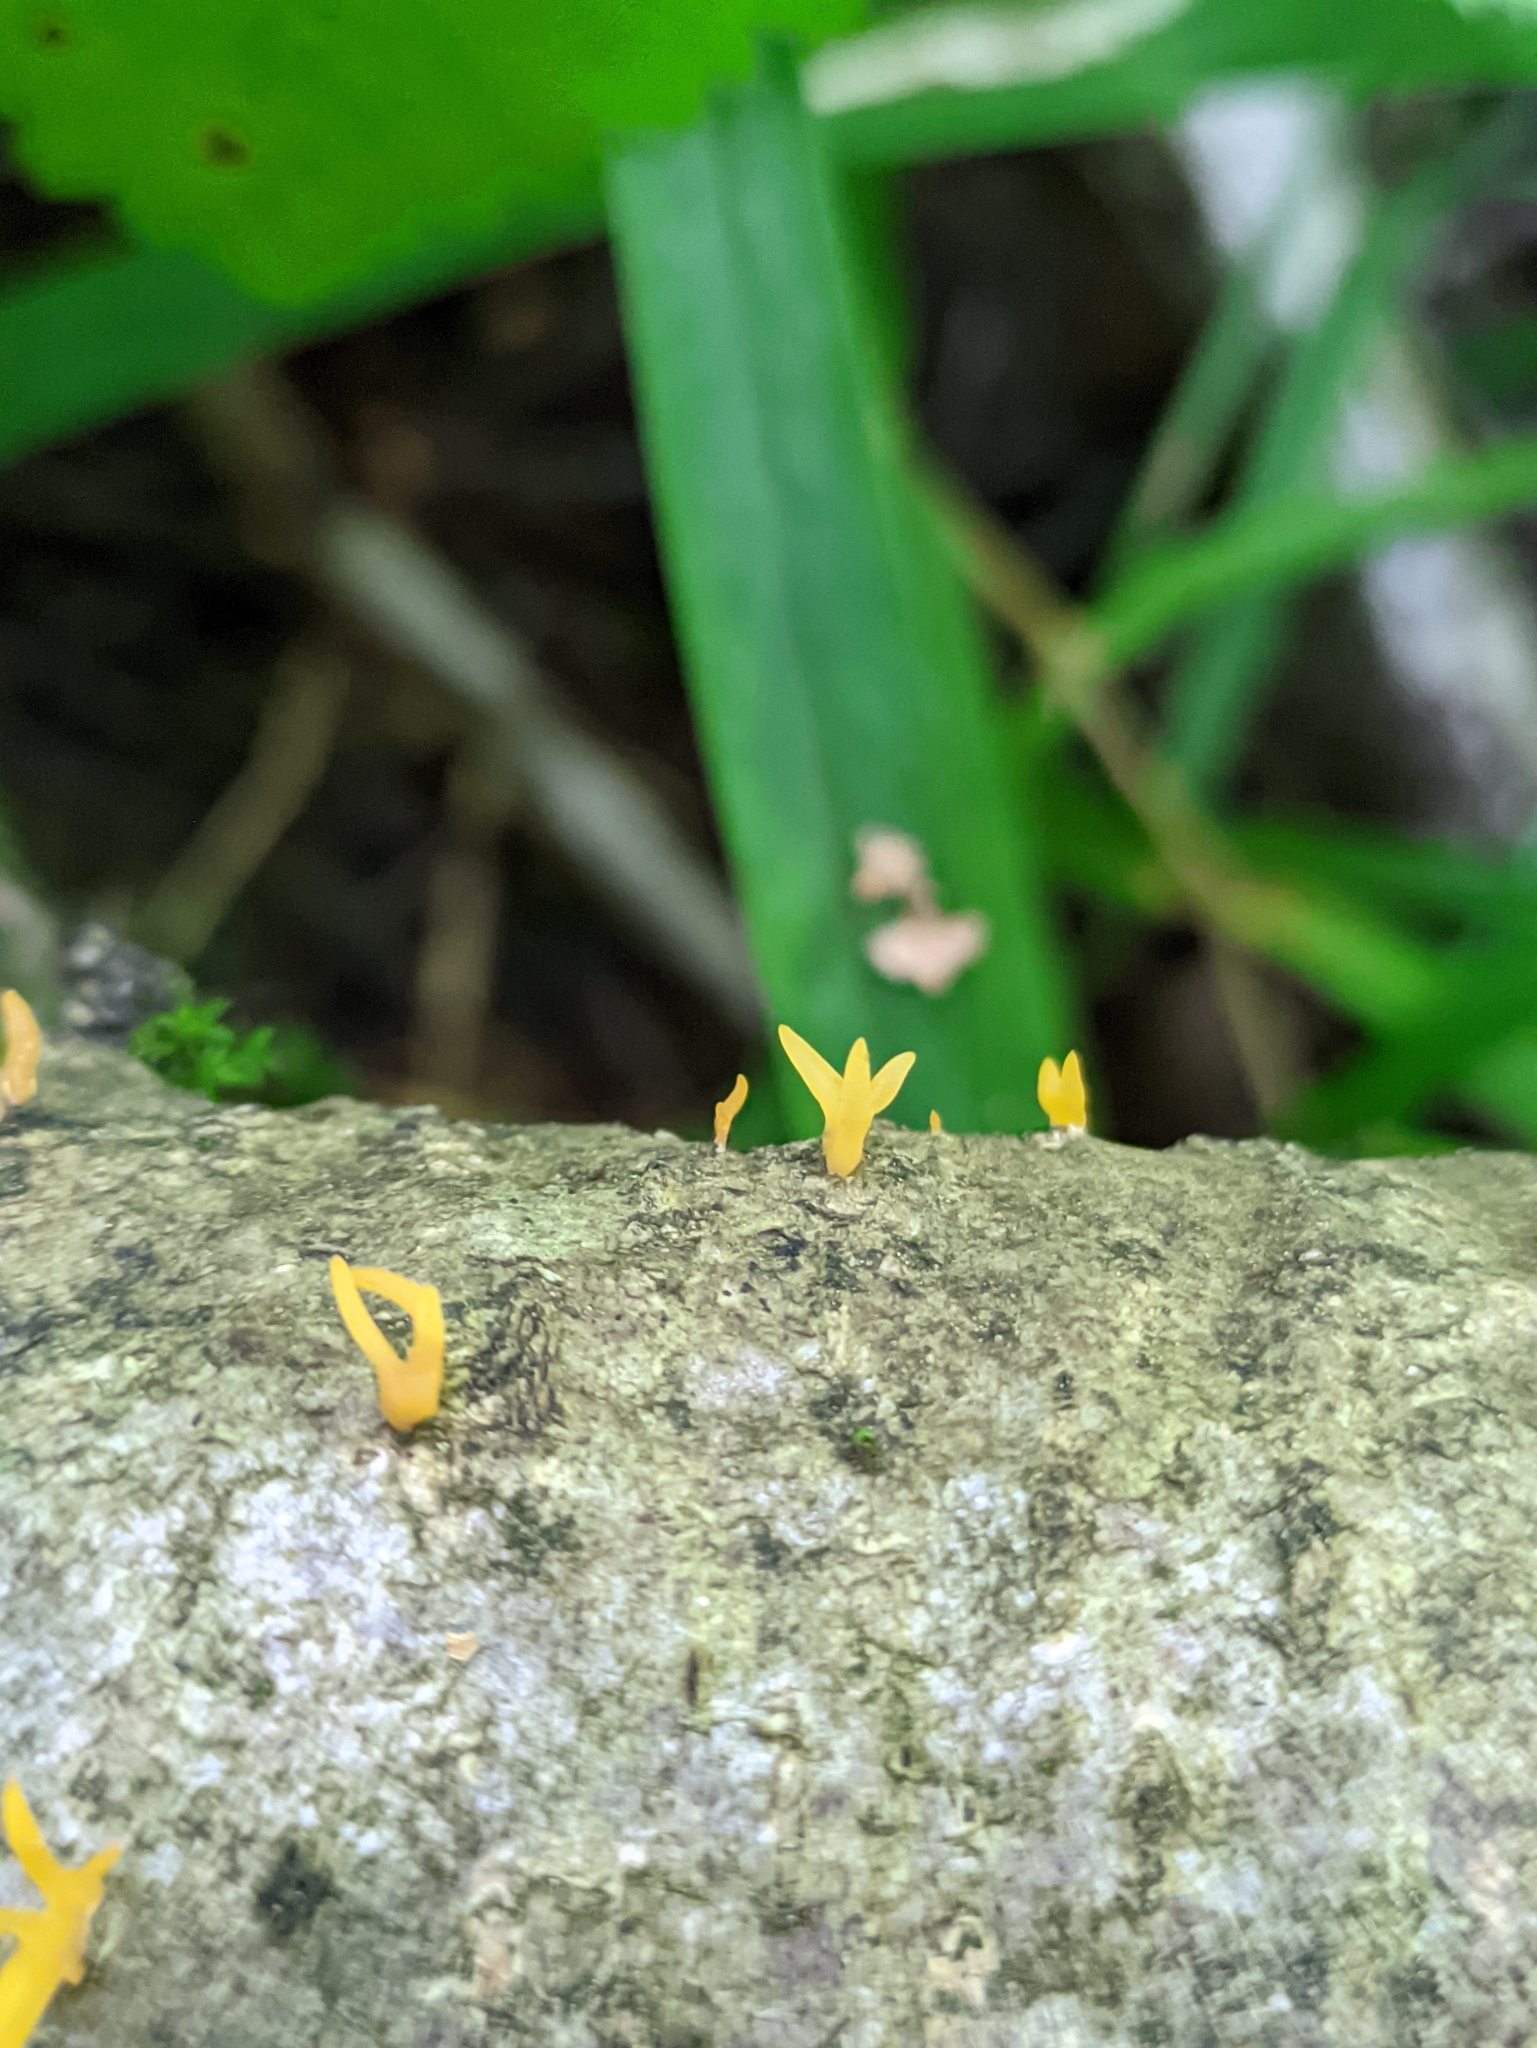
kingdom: Fungi
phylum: Basidiomycota
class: Dacrymycetes
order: Dacrymycetales
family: Dacrymycetaceae
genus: Calocera
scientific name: Calocera cornea
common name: Small stagshorn
